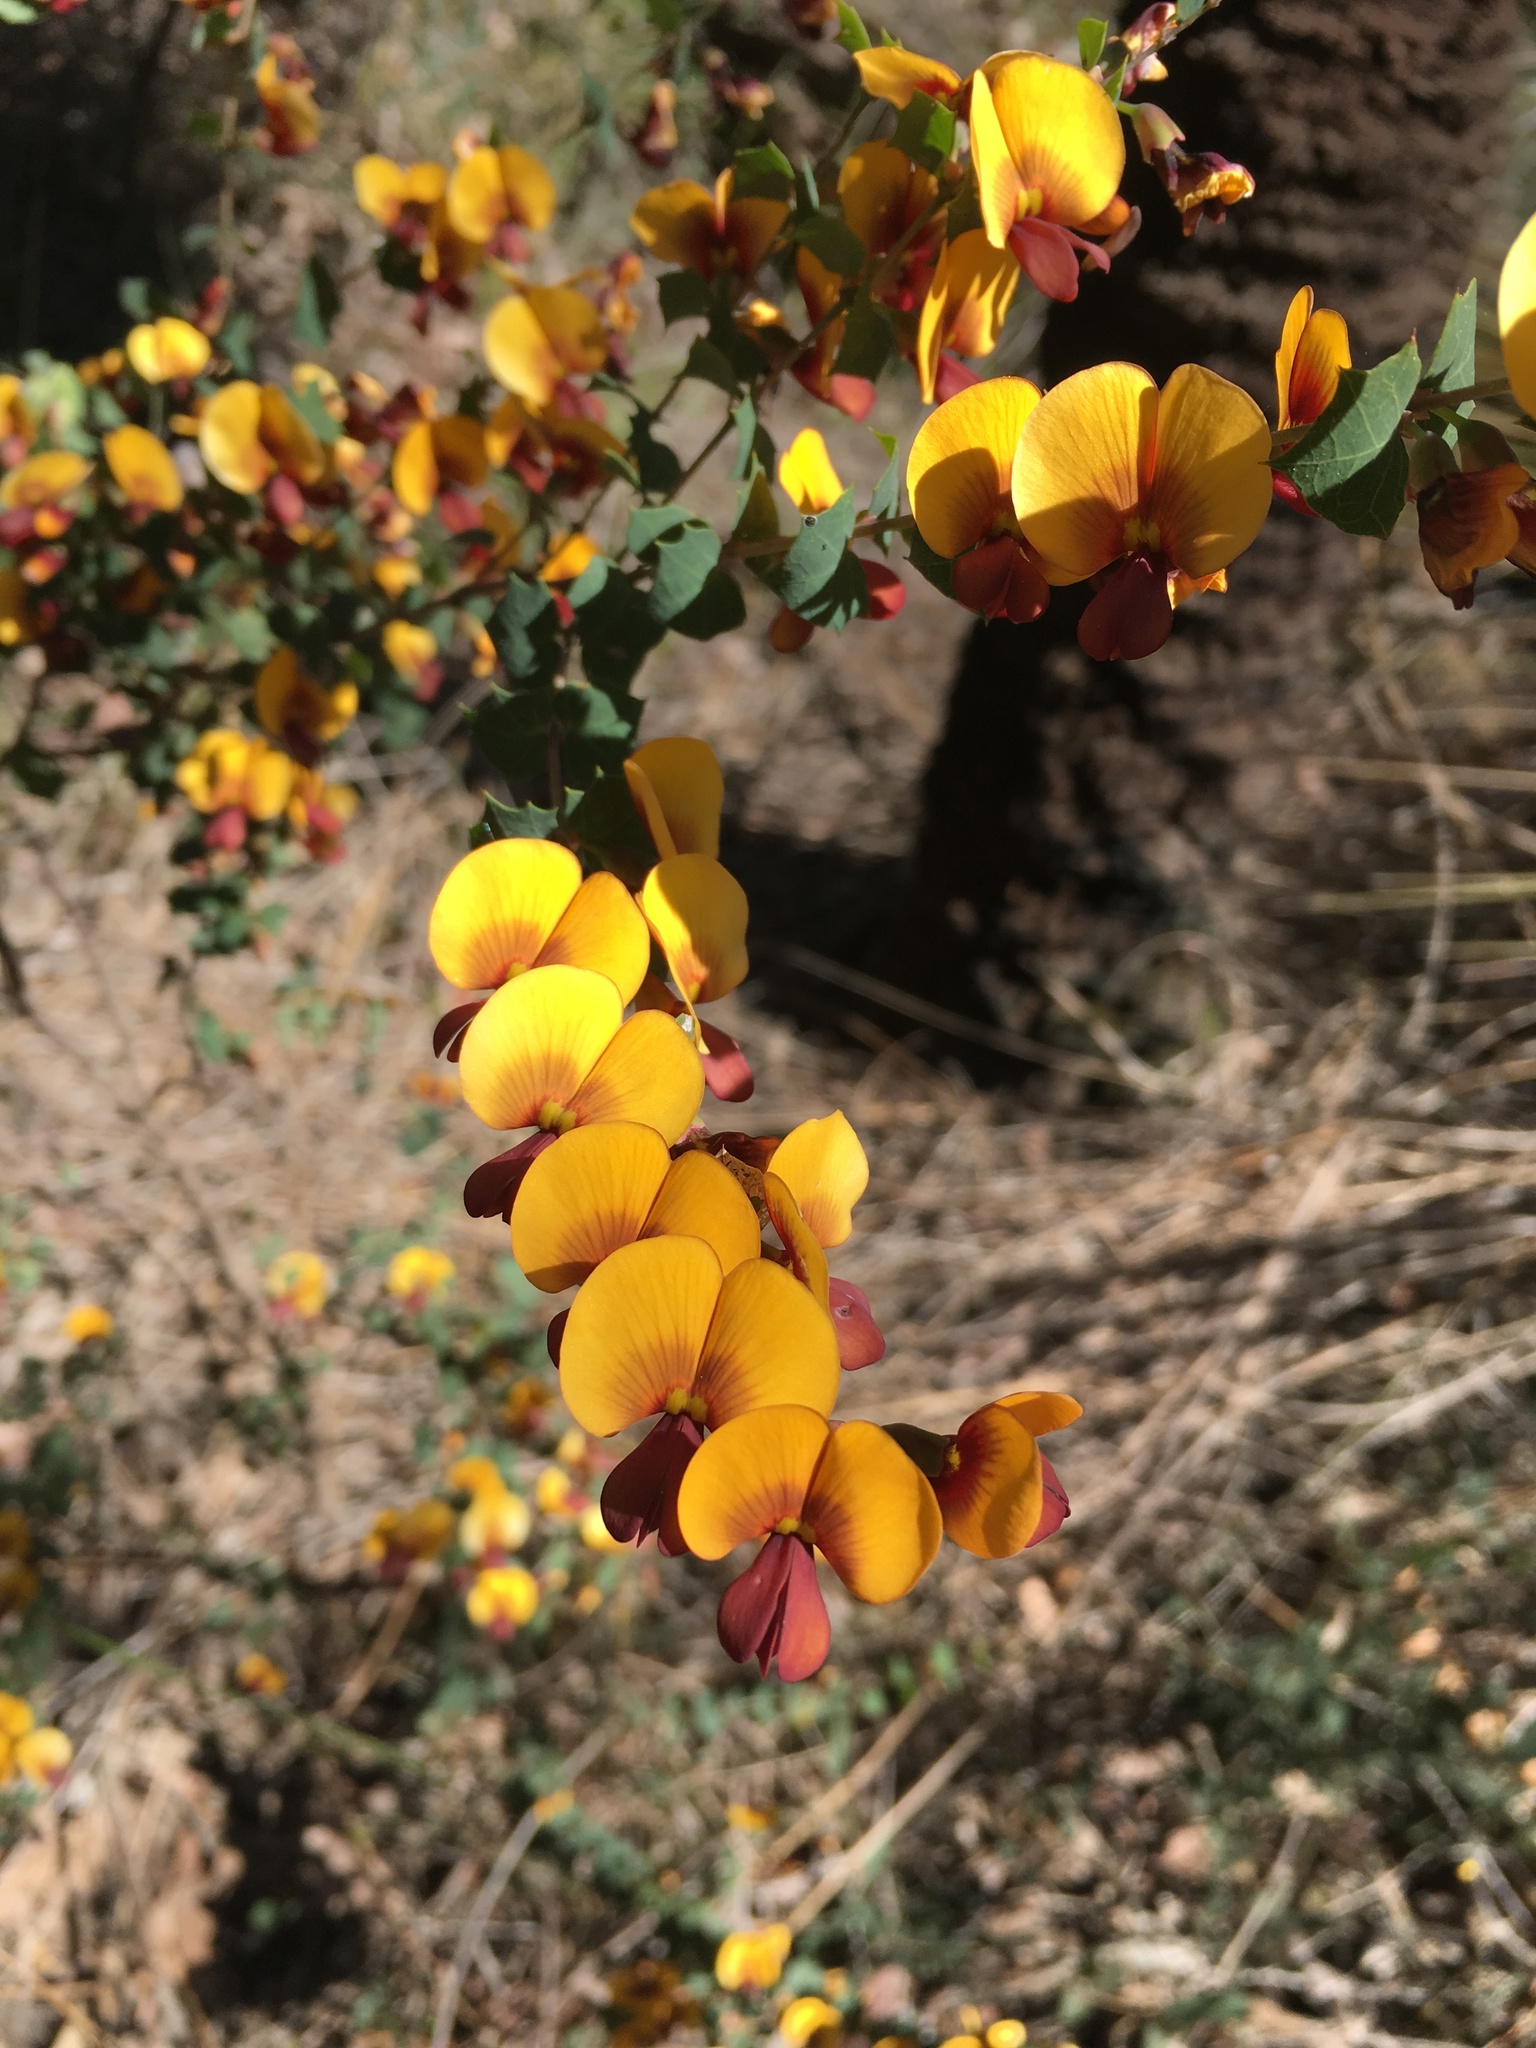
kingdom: Plantae
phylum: Tracheophyta
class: Magnoliopsida
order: Fabales
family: Fabaceae
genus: Bossiaea
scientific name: Bossiaea aquifolium
